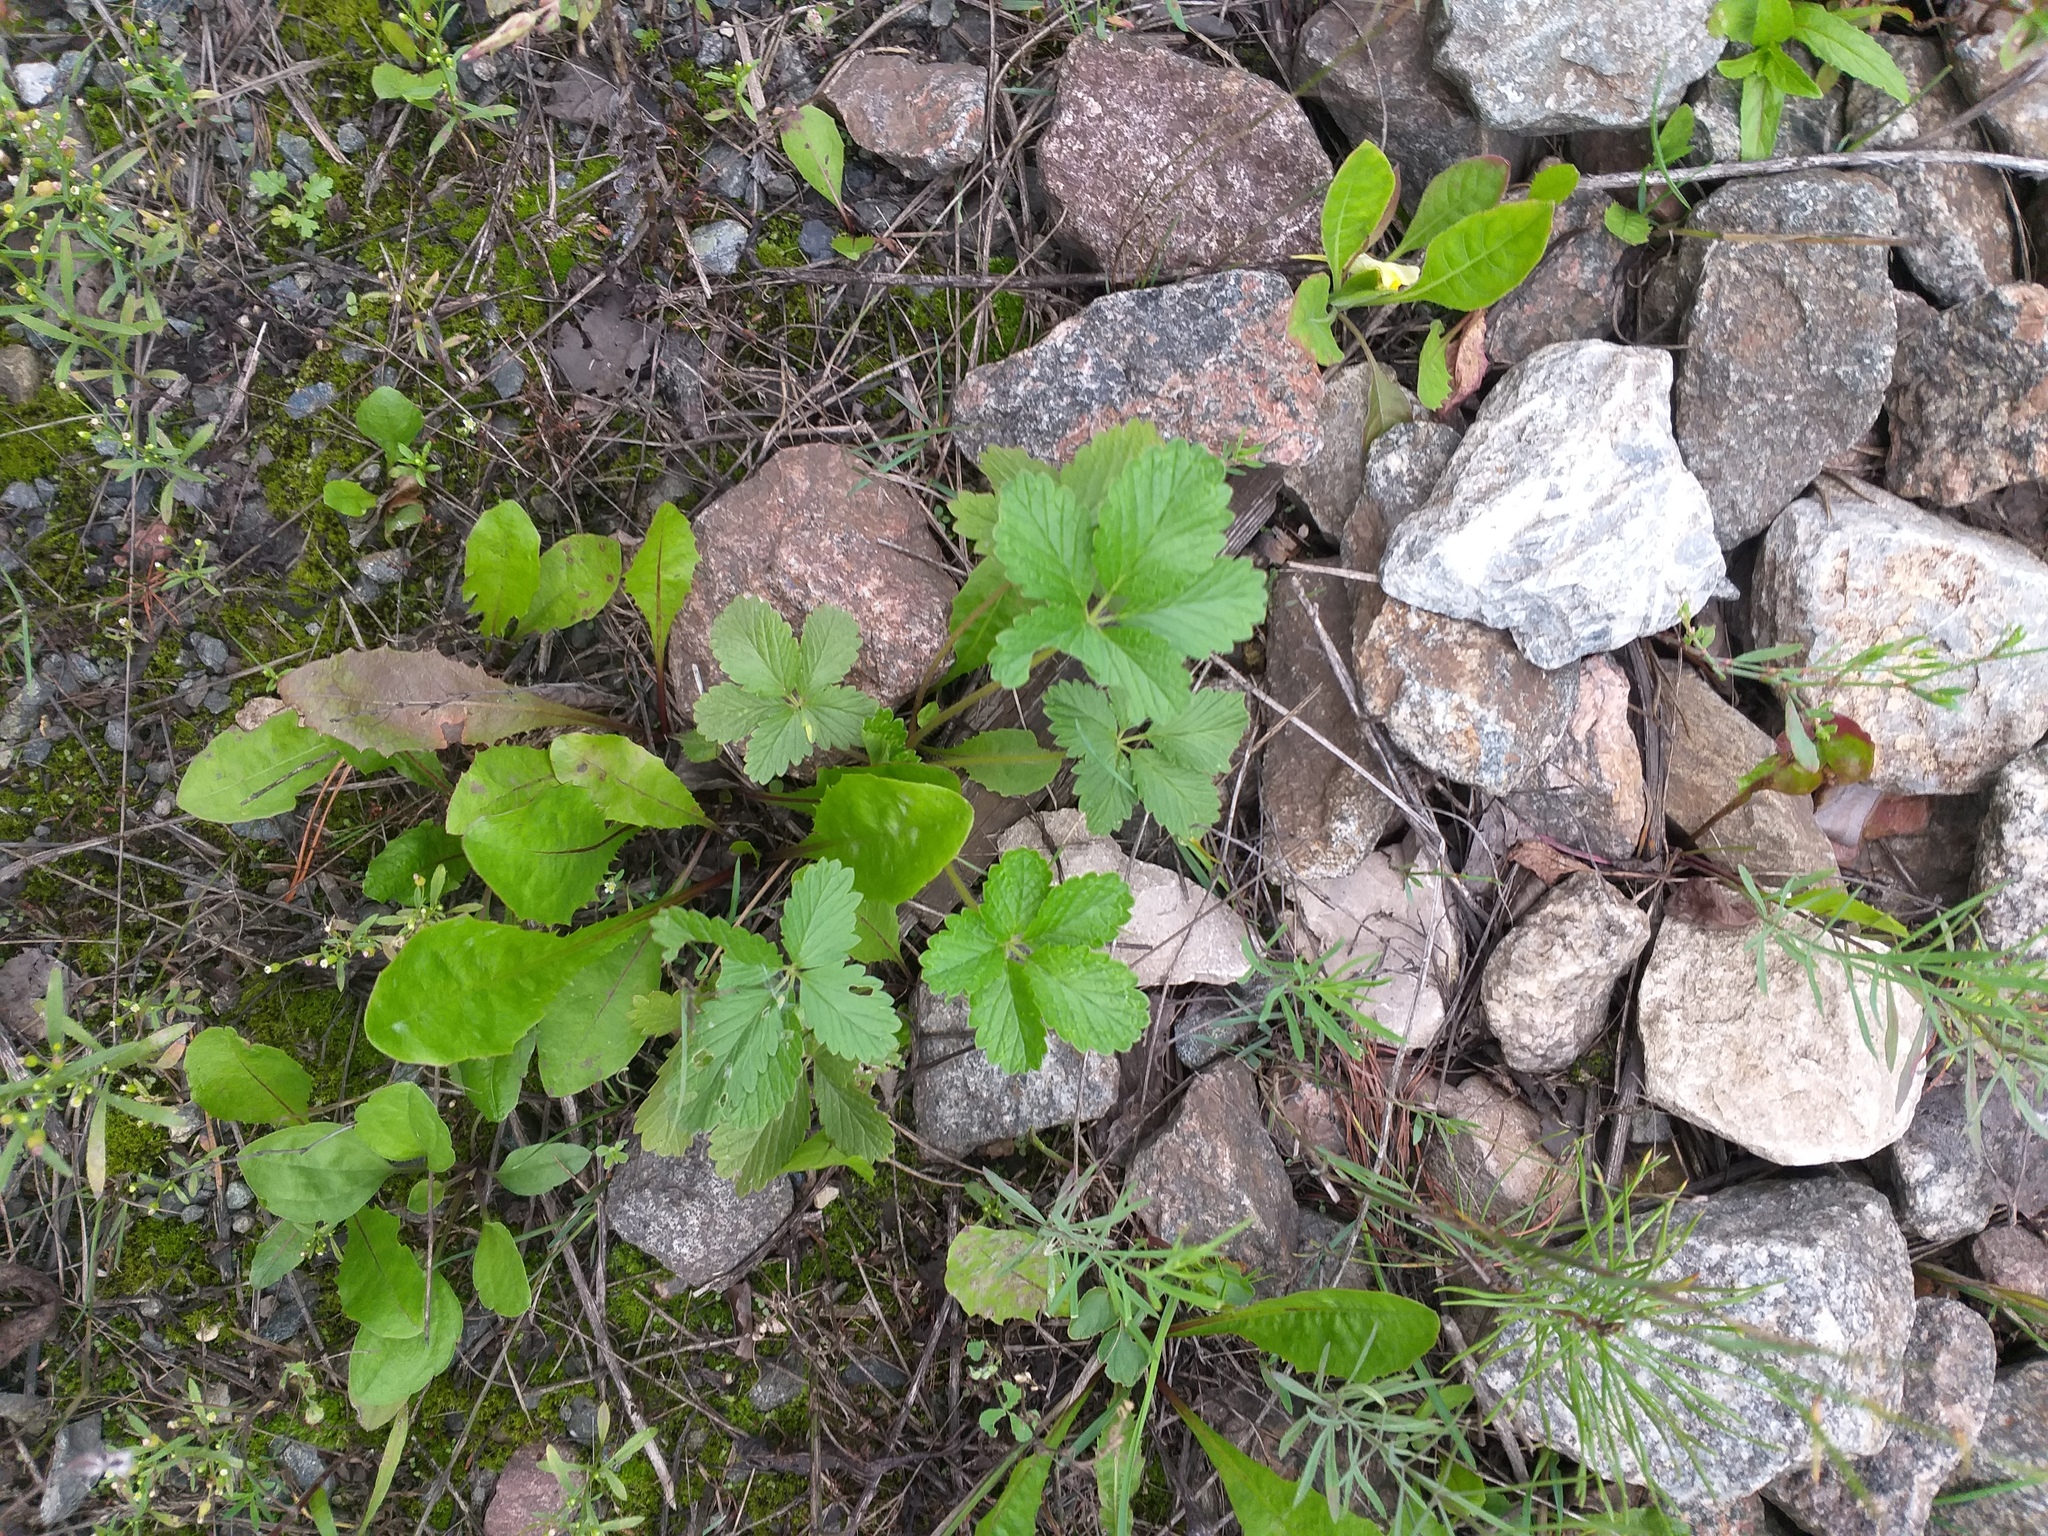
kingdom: Plantae
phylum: Tracheophyta
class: Magnoliopsida
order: Rosales
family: Rosaceae
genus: Potentilla
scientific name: Potentilla intermedia
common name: Downy cinquefoil
